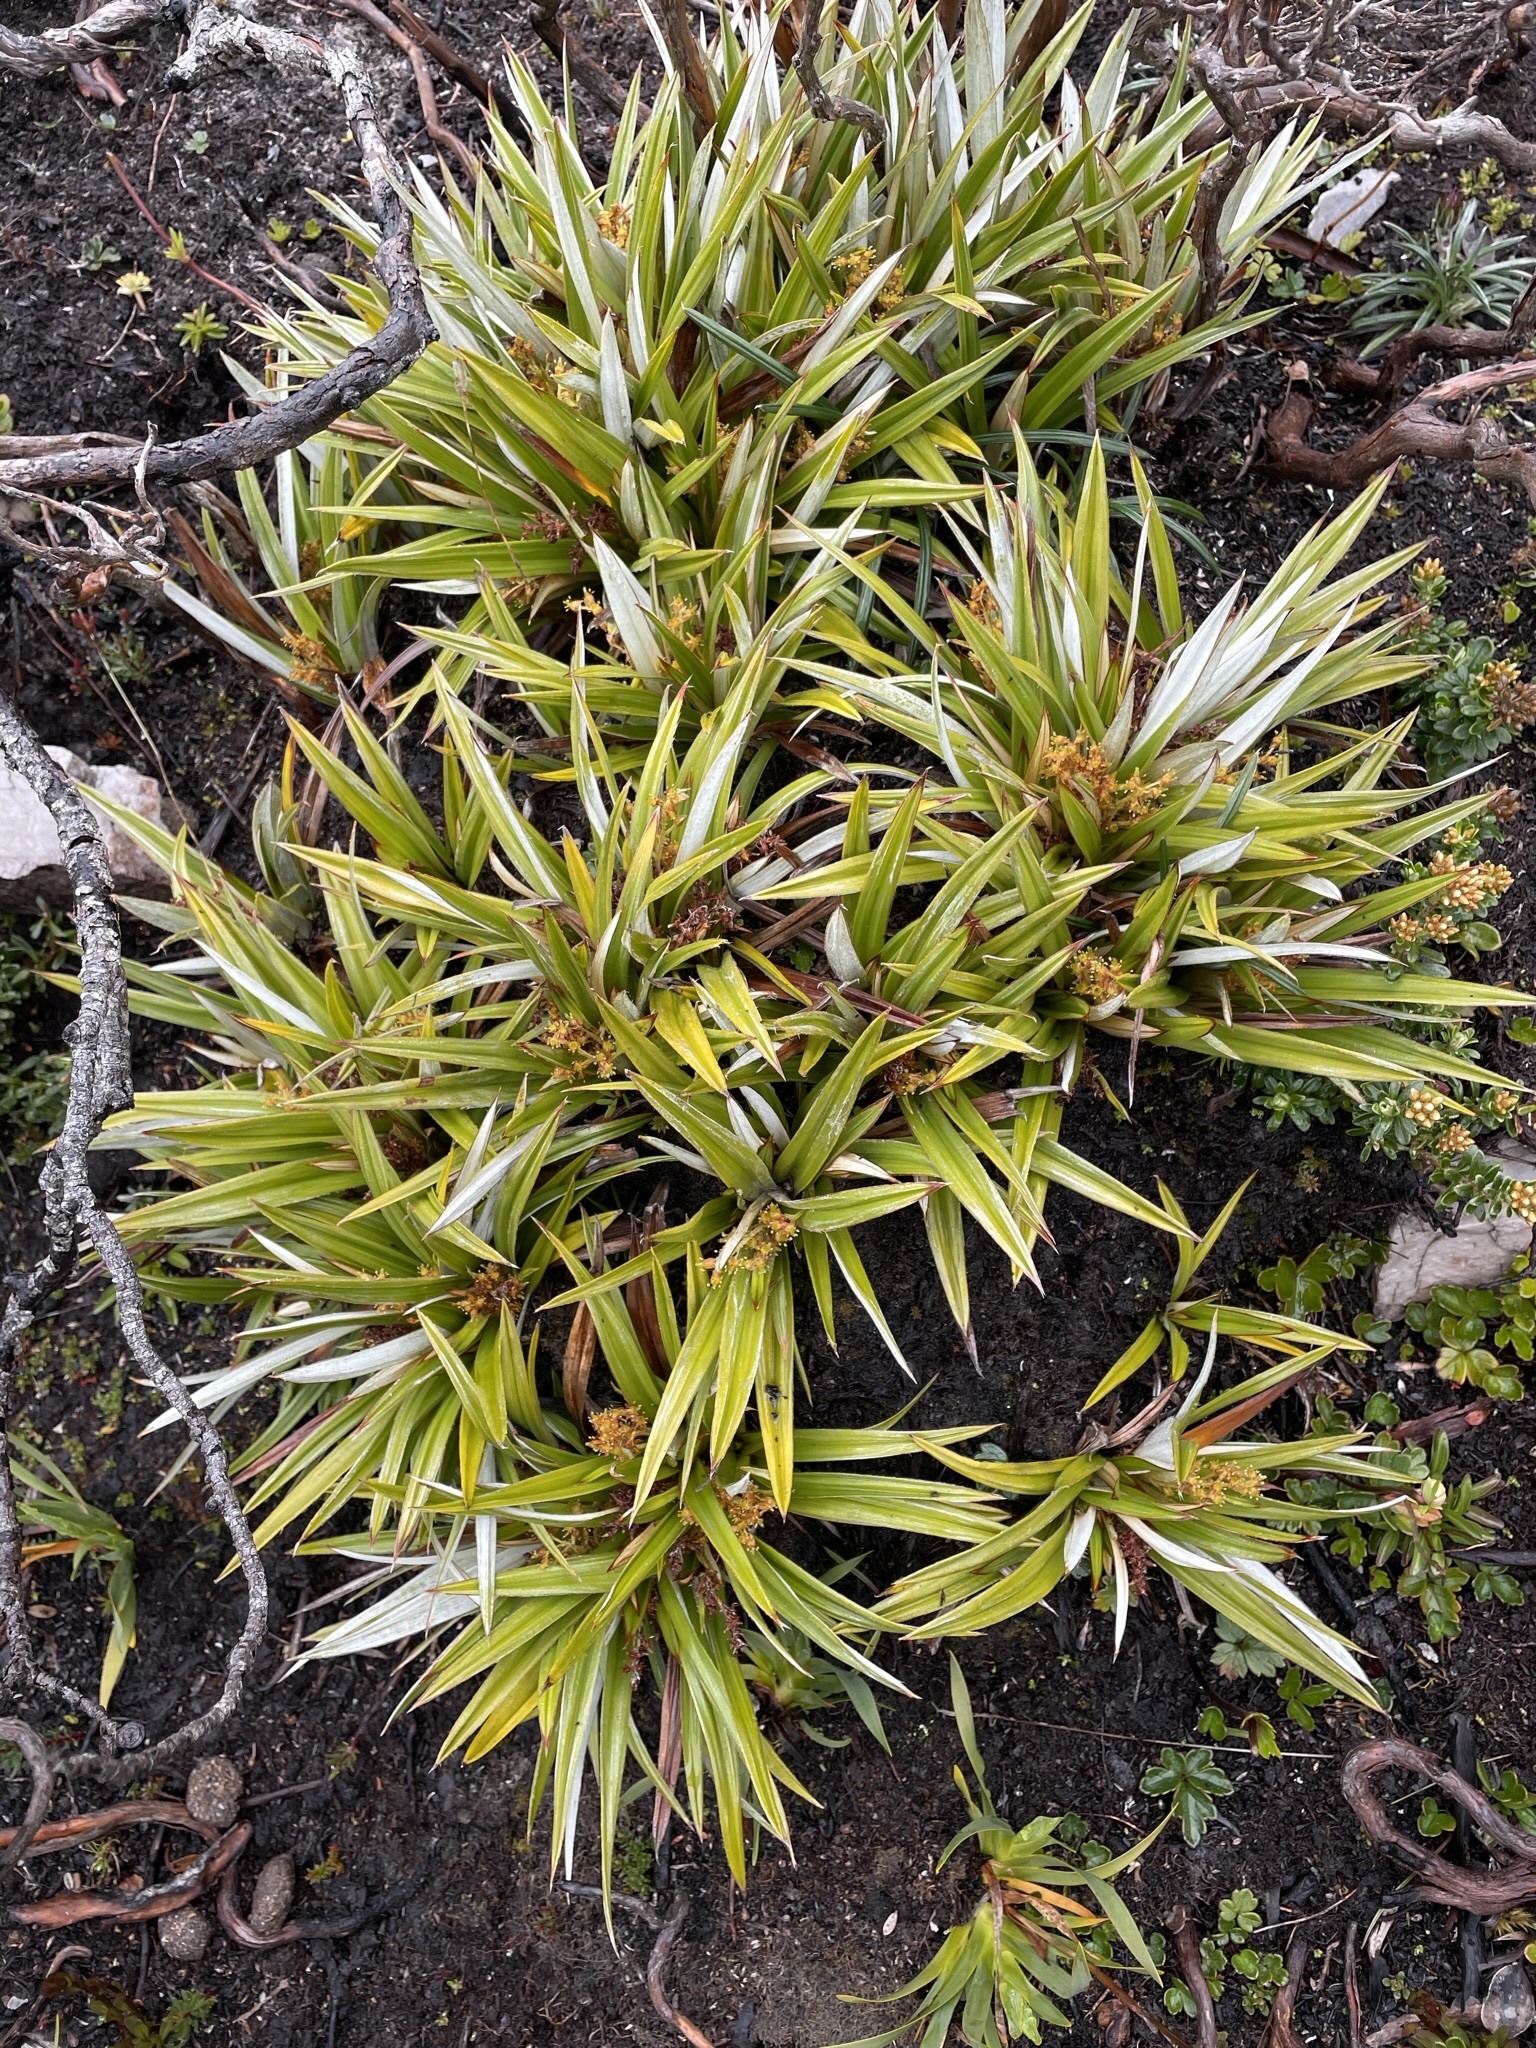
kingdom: Plantae
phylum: Tracheophyta
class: Liliopsida
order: Asparagales
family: Asteliaceae
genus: Astelia
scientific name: Astelia alpina
